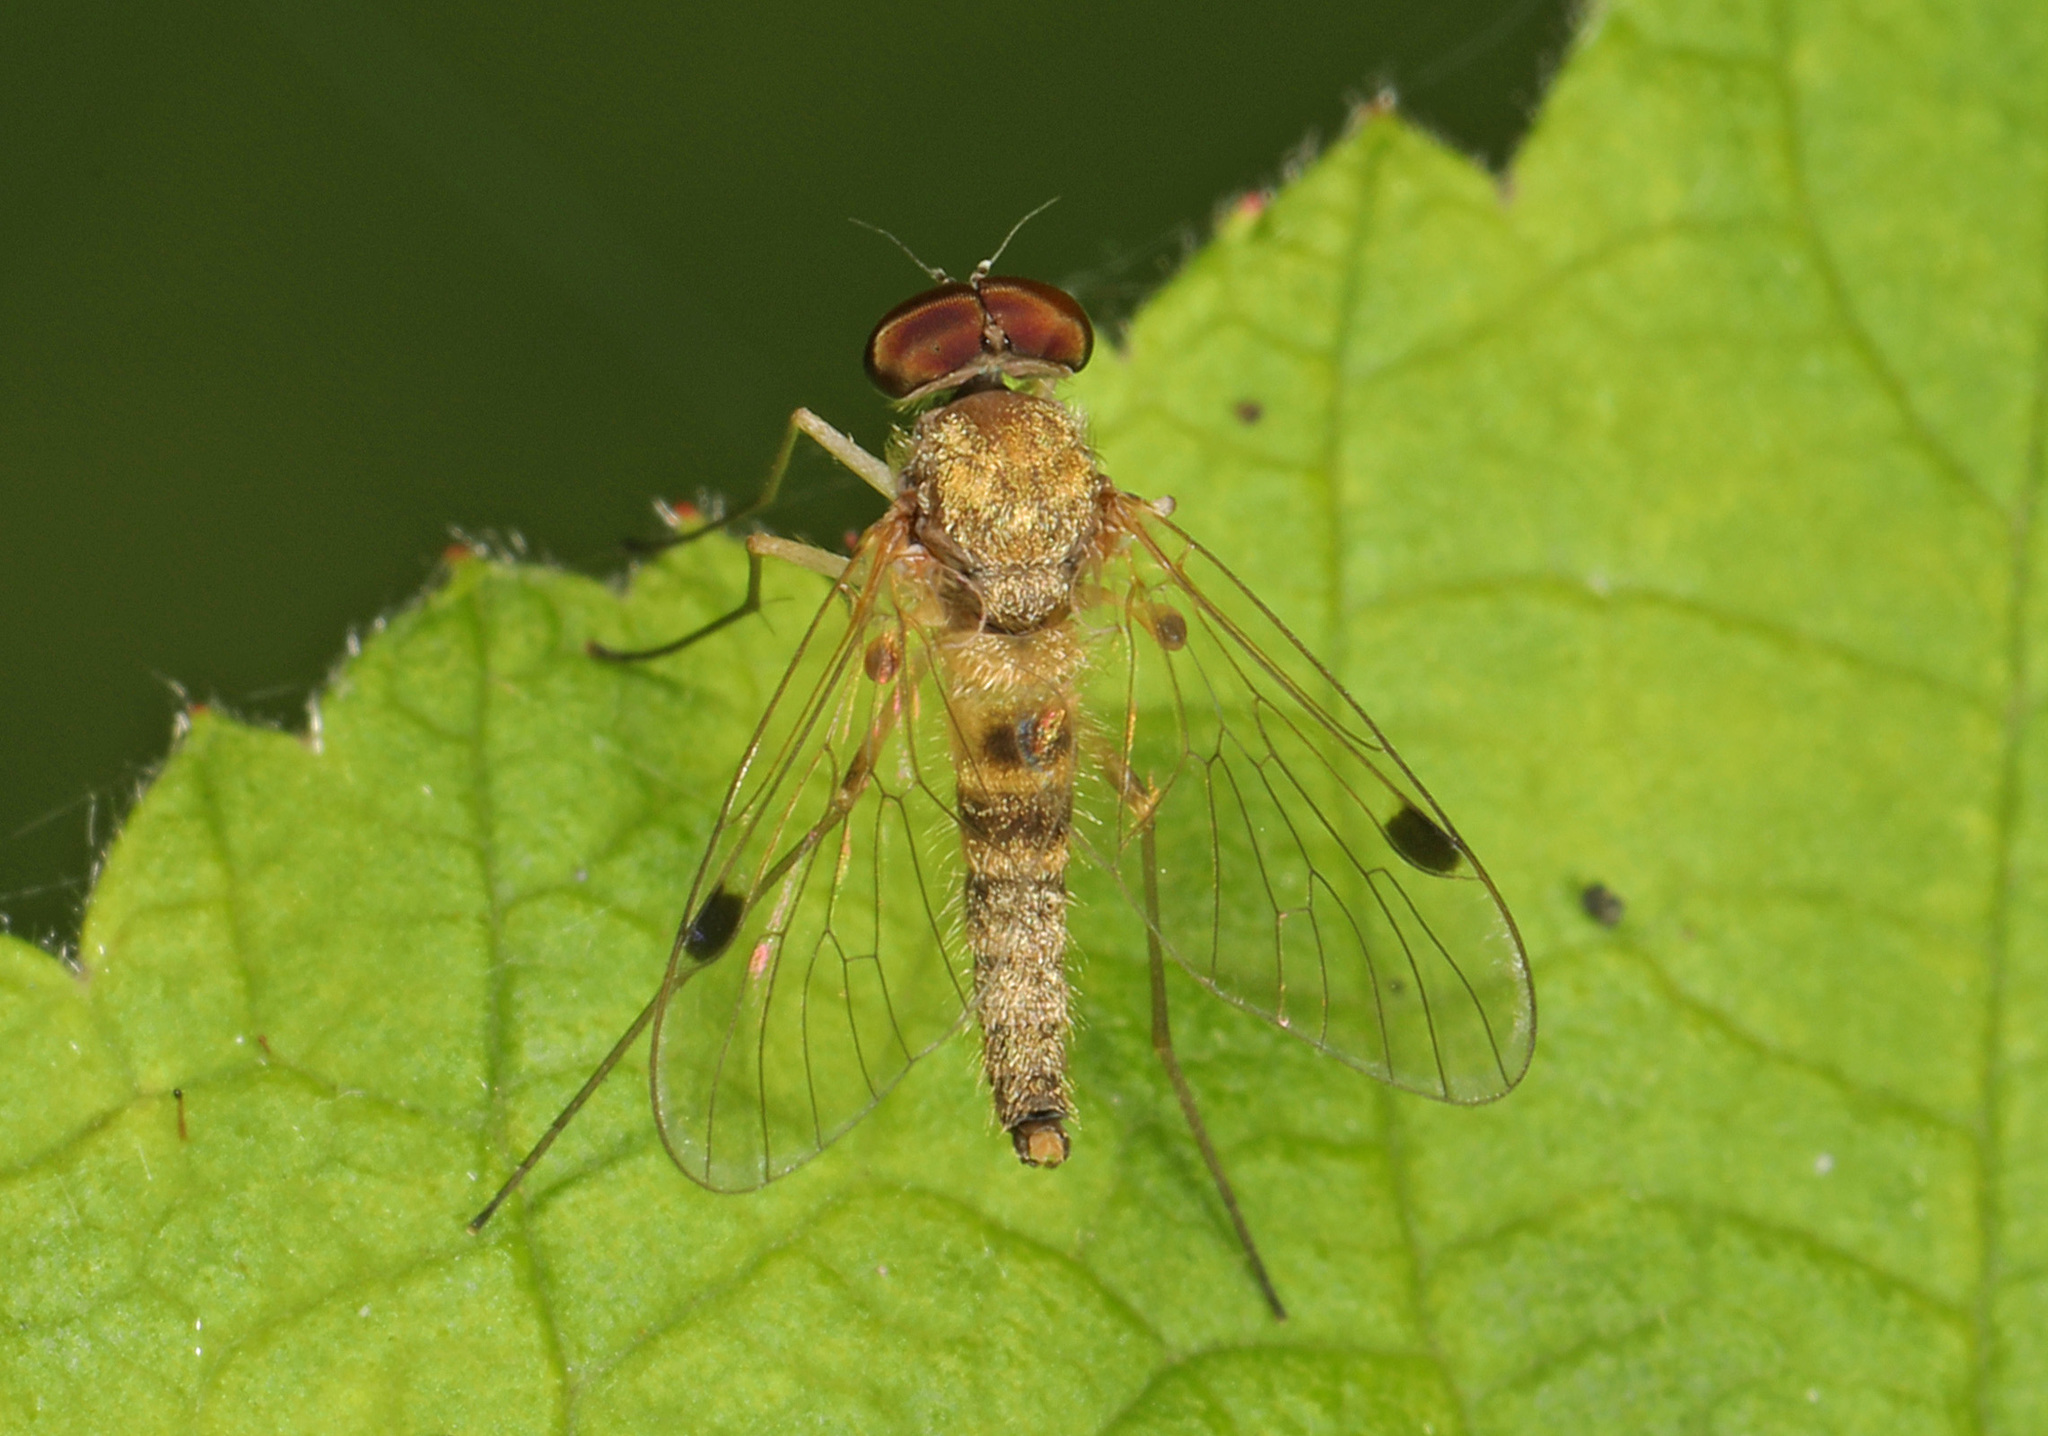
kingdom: Animalia
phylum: Arthropoda
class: Insecta
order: Diptera
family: Rhagionidae
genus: Chrysopilus
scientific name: Chrysopilus modestus
